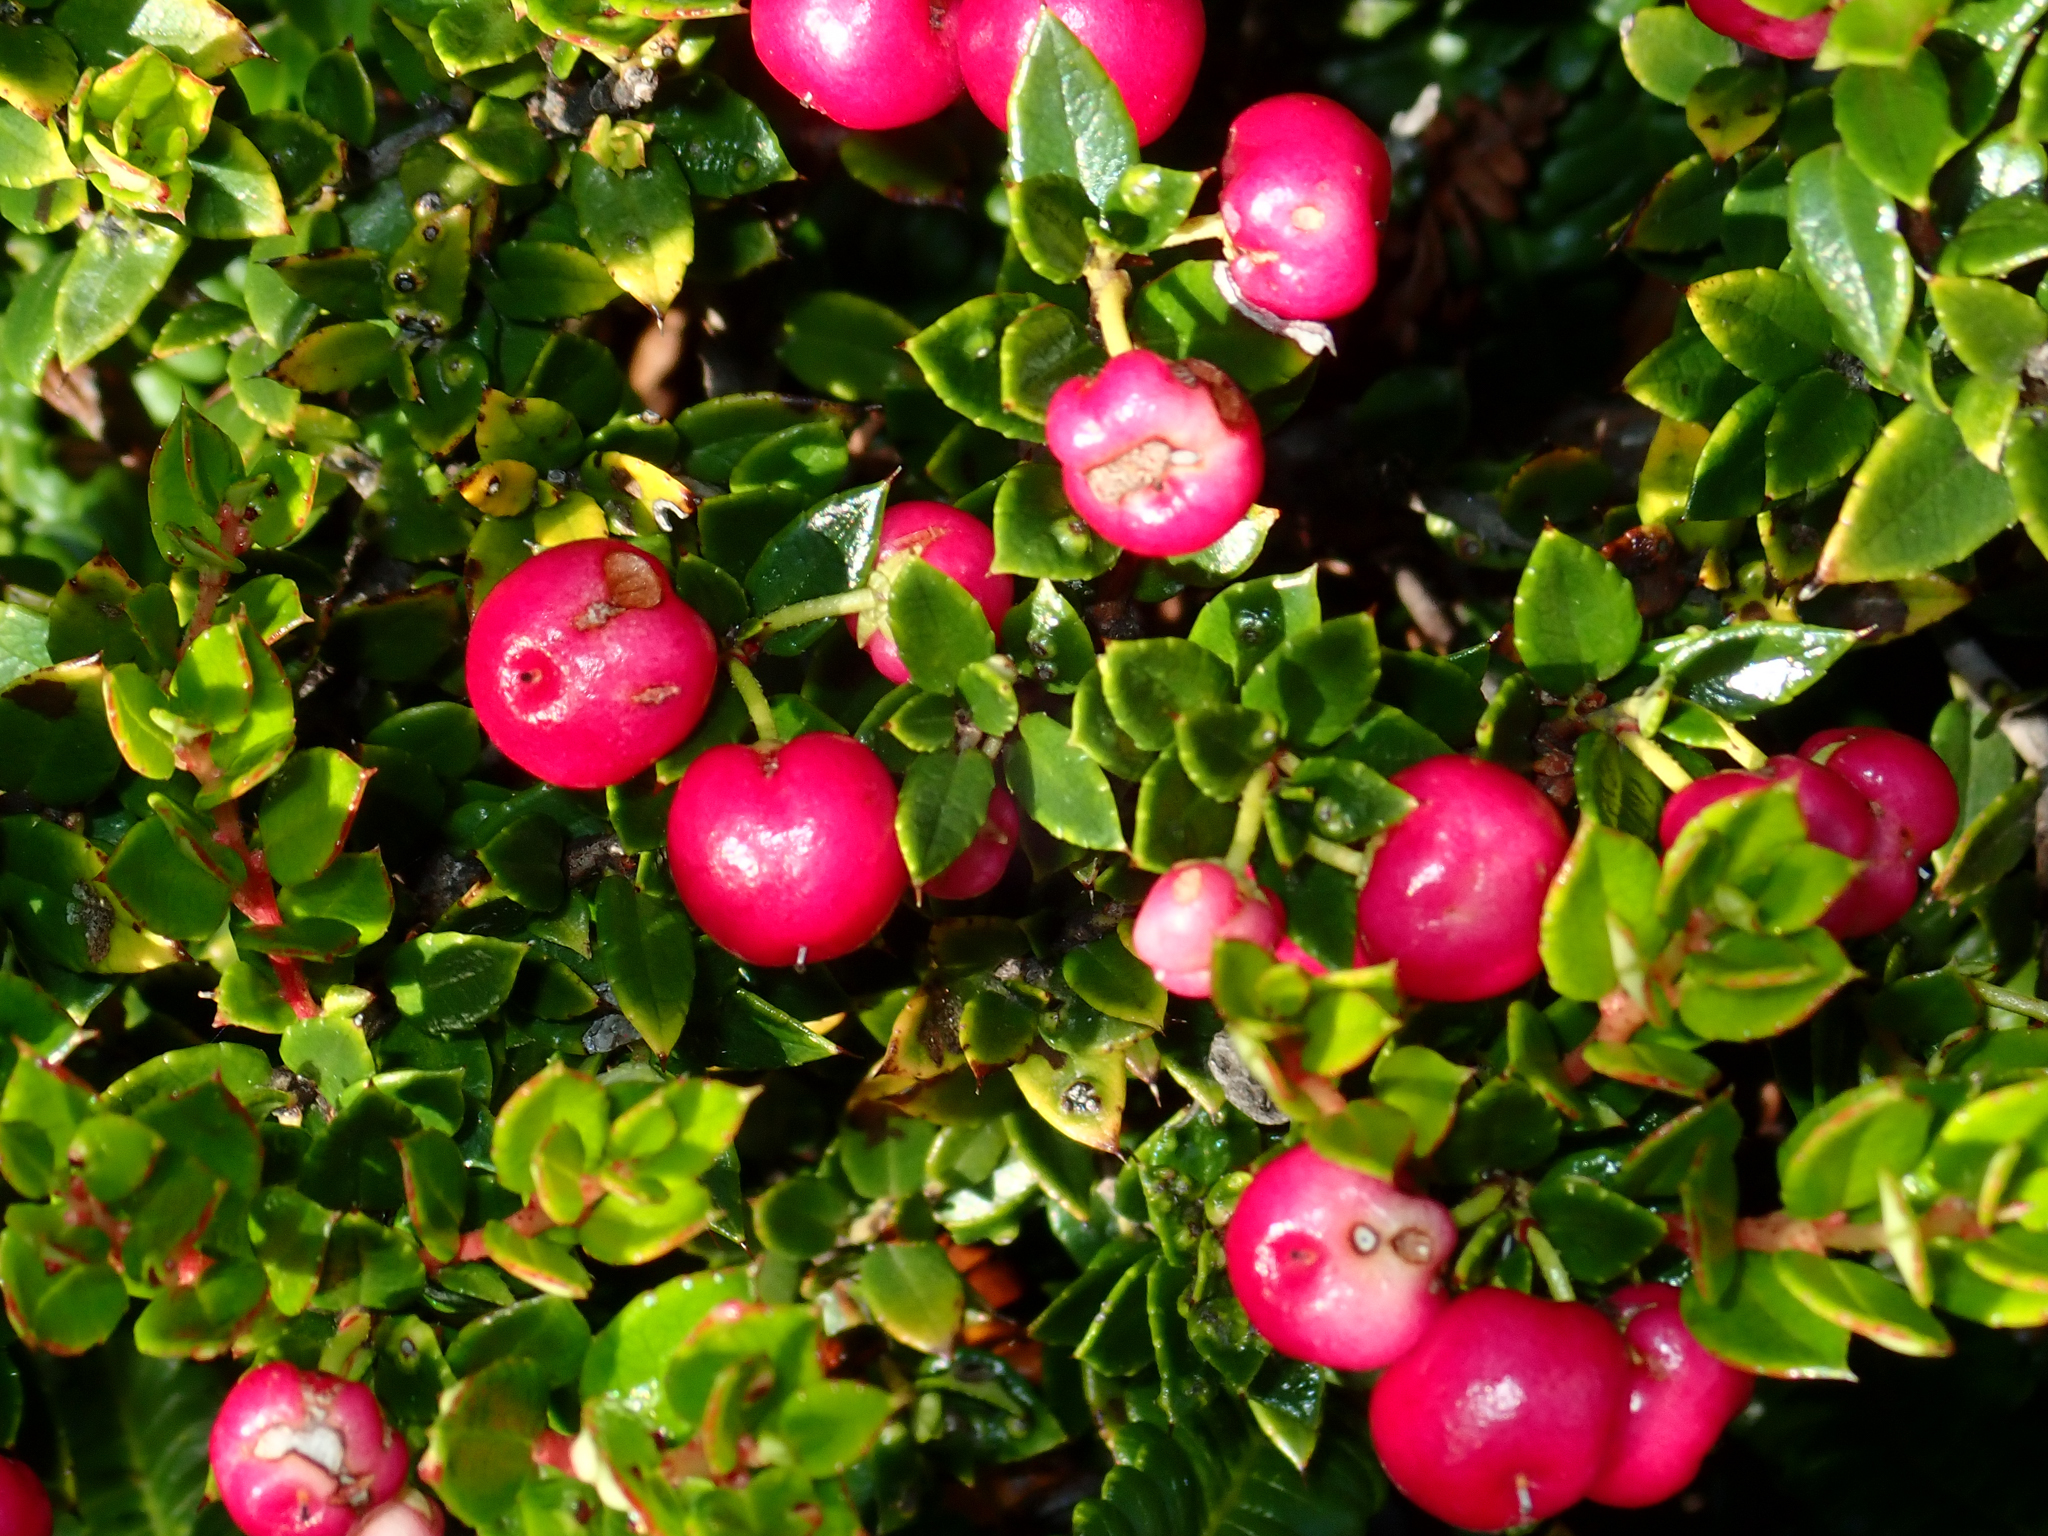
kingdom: Plantae
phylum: Tracheophyta
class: Magnoliopsida
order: Ericales
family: Ericaceae
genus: Gaultheria
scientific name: Gaultheria mucronata
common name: Prickly heath
